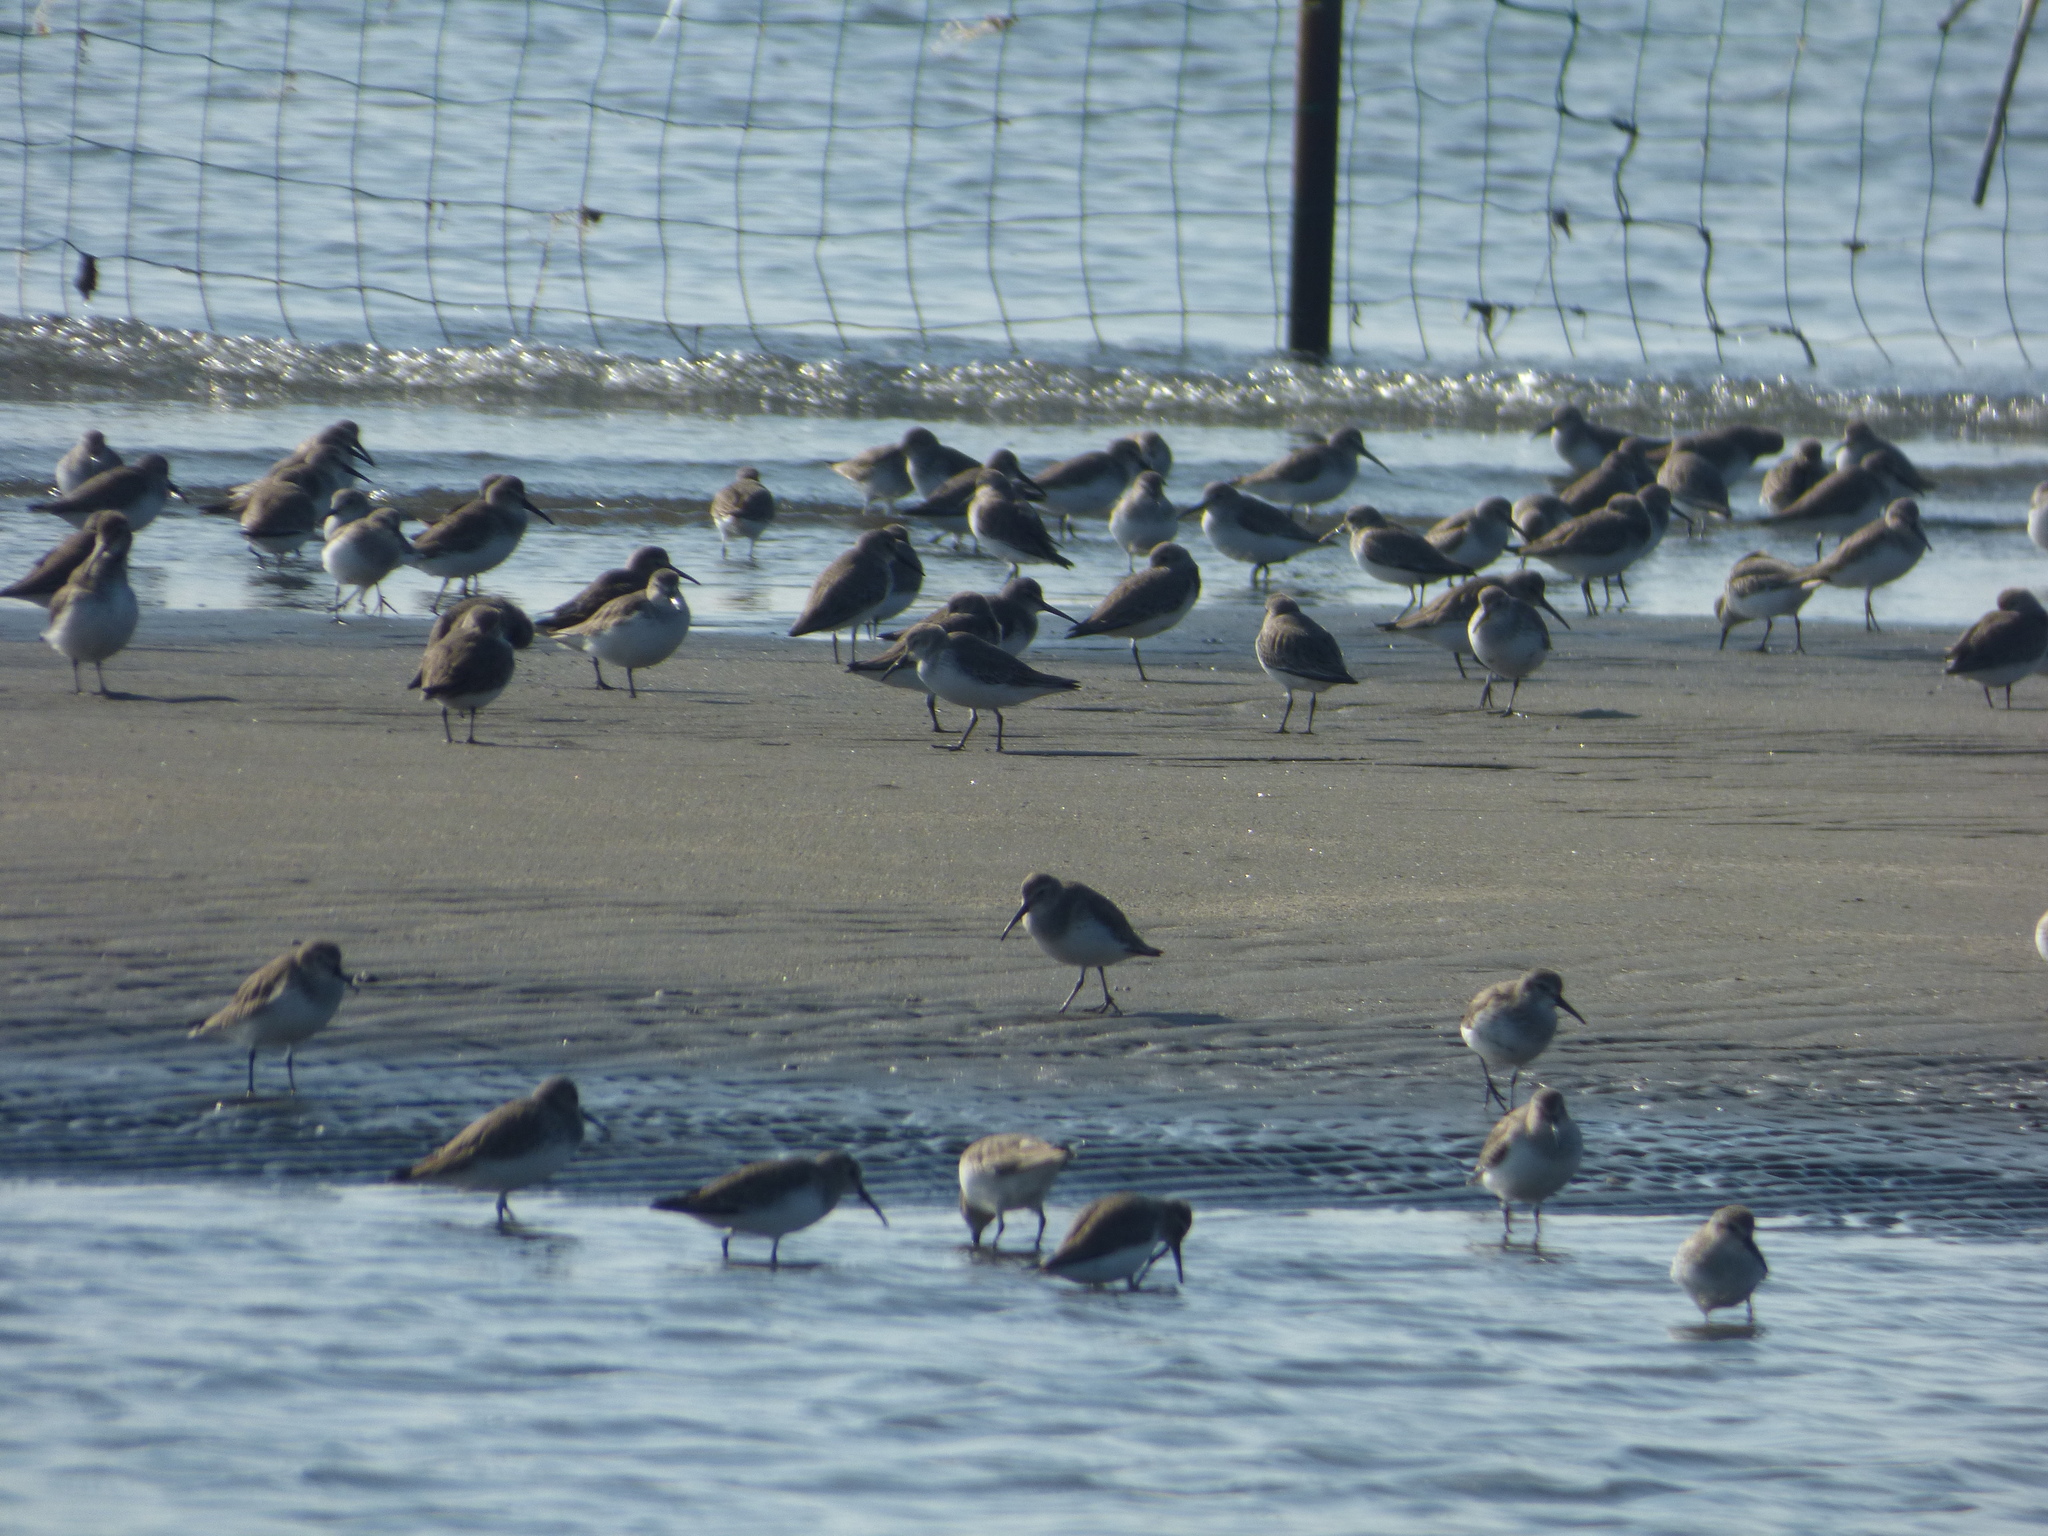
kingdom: Animalia
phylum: Chordata
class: Aves
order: Charadriiformes
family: Scolopacidae
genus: Calidris
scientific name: Calidris alpina
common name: Dunlin
